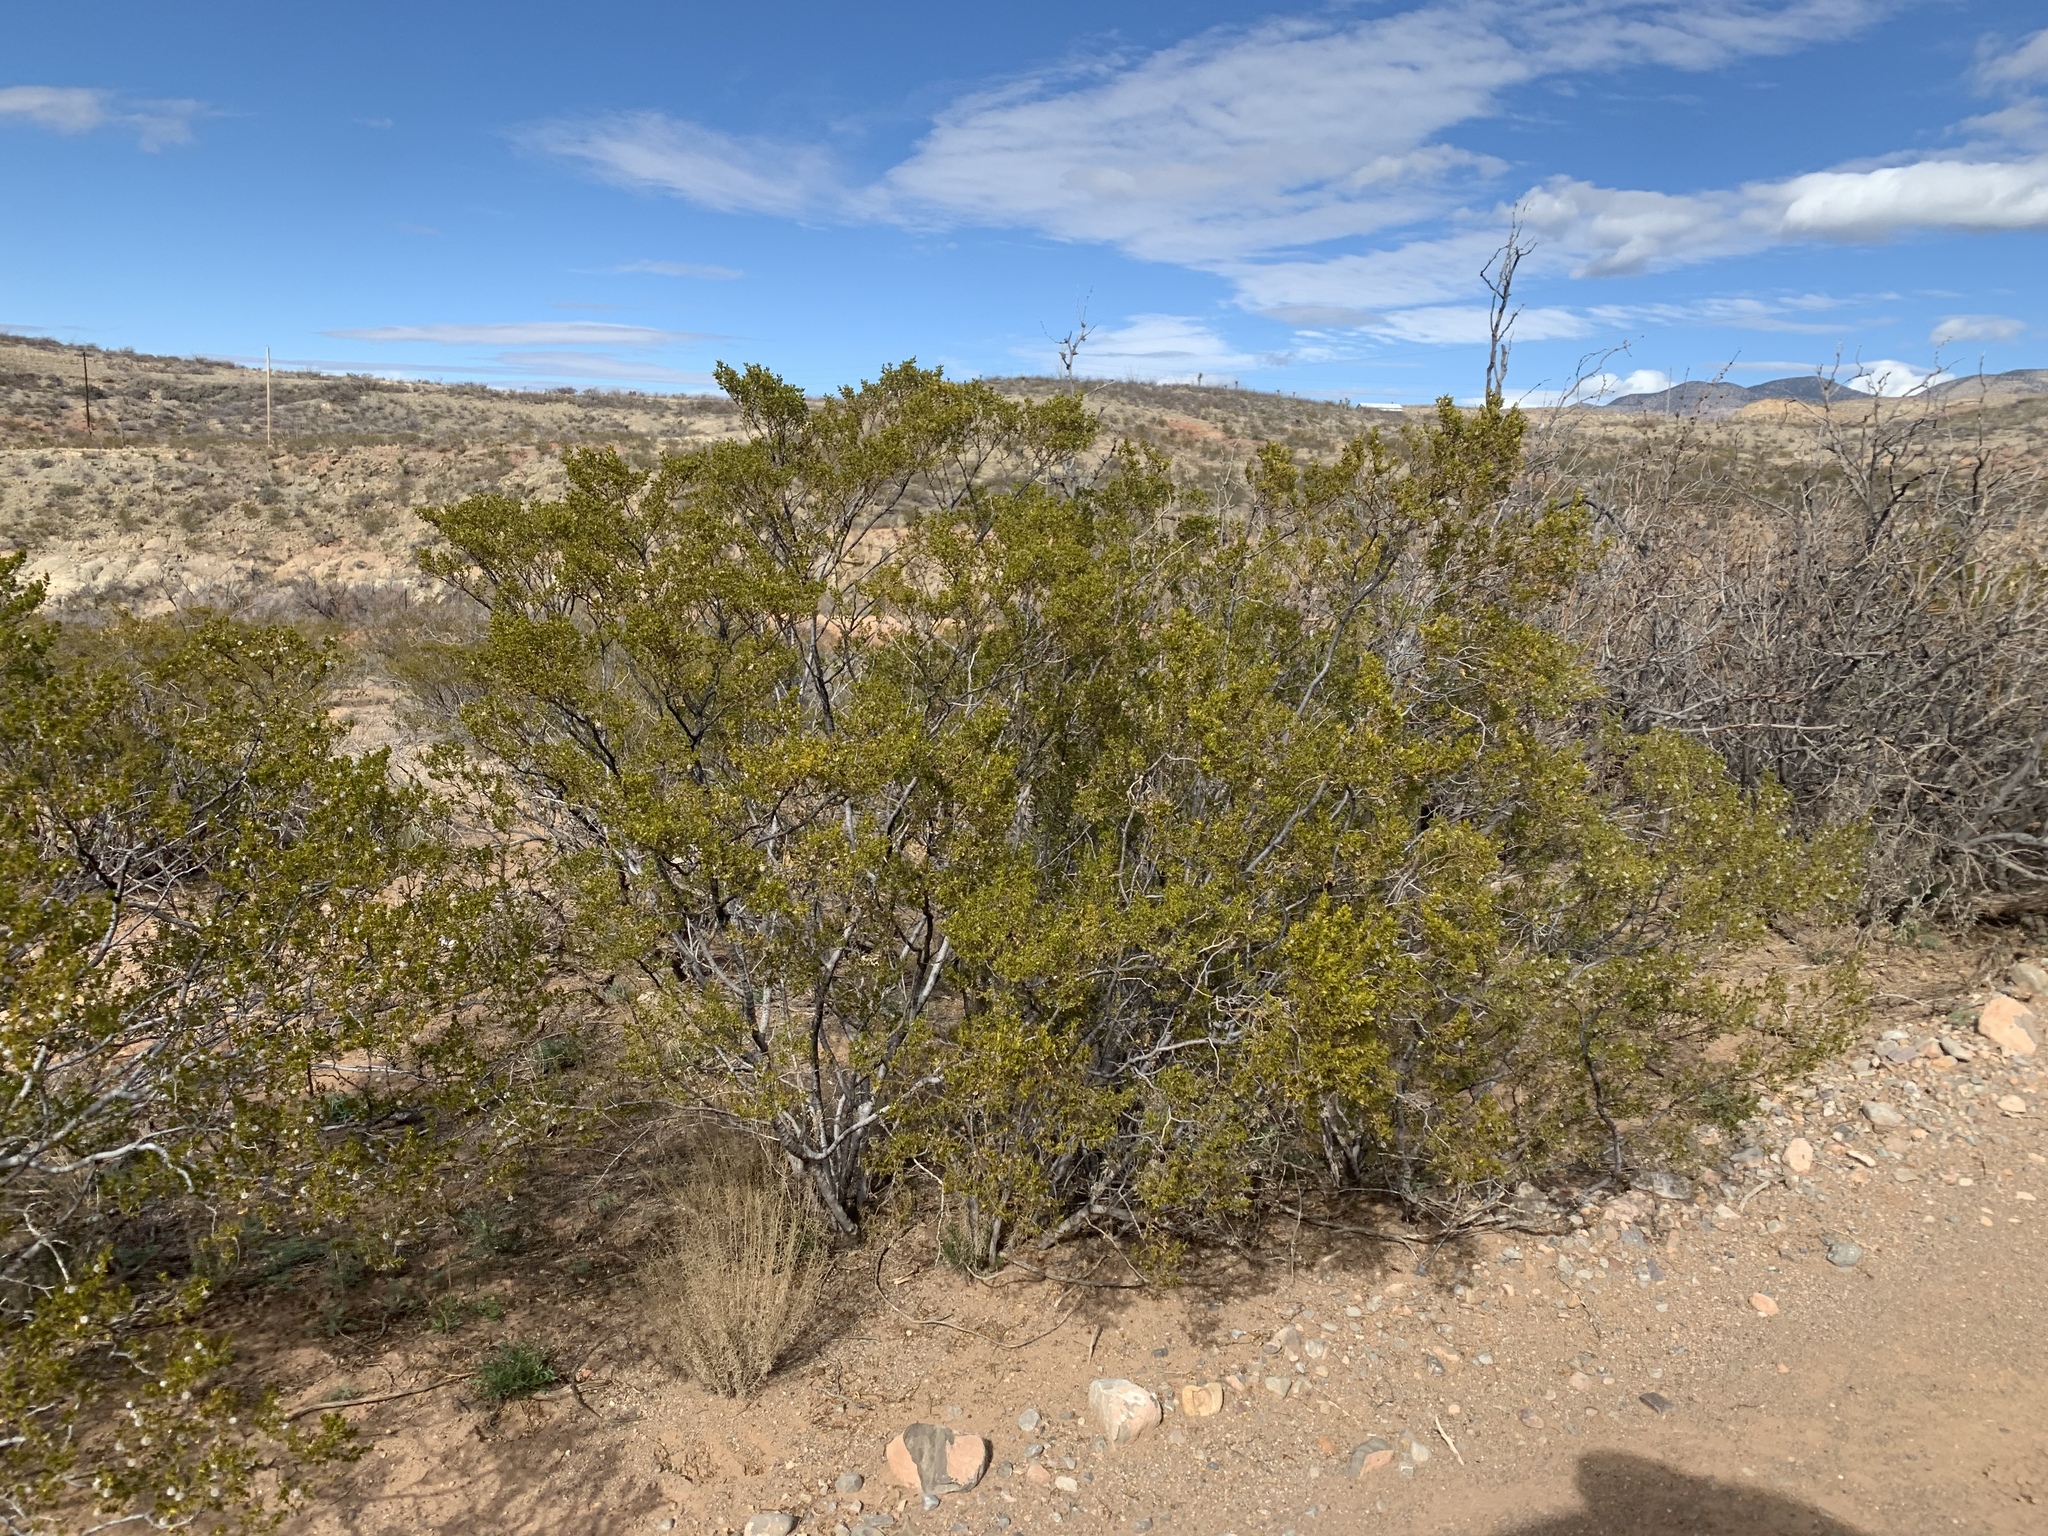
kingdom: Plantae
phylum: Tracheophyta
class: Magnoliopsida
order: Zygophyllales
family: Zygophyllaceae
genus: Larrea
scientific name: Larrea tridentata
